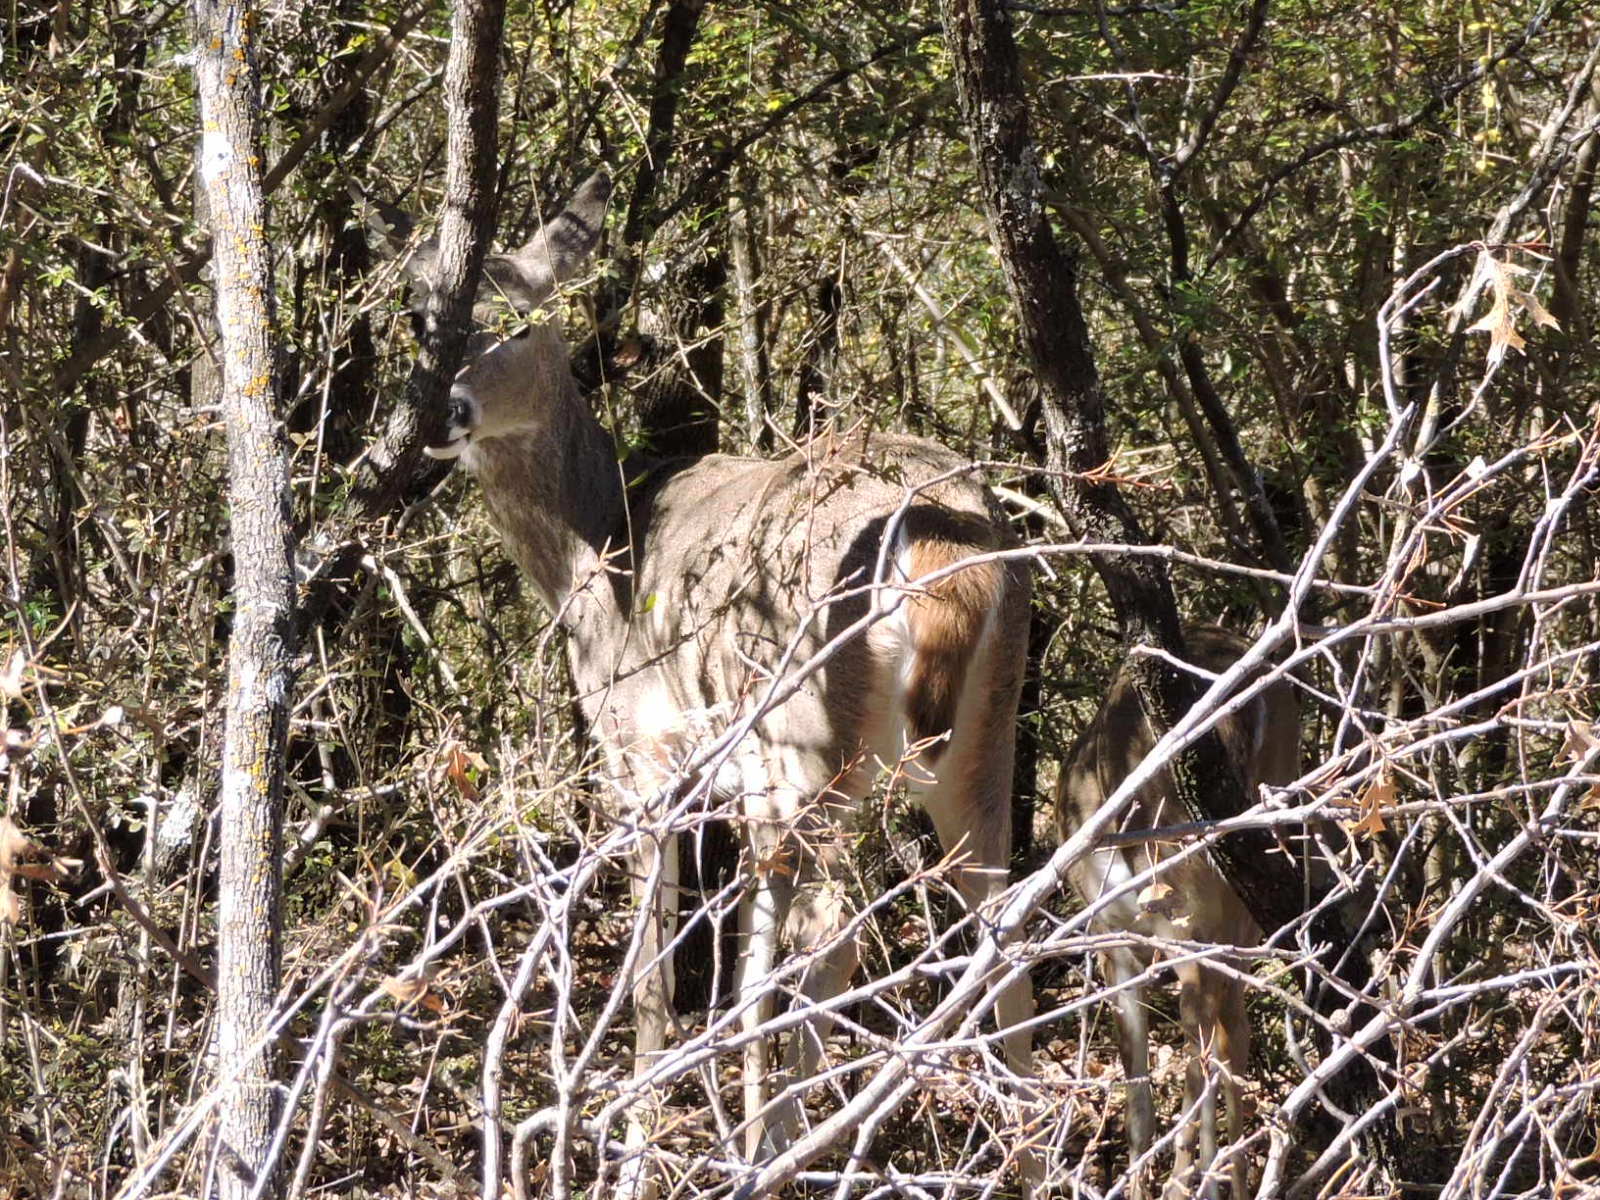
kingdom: Animalia
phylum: Chordata
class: Mammalia
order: Artiodactyla
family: Cervidae
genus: Odocoileus
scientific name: Odocoileus virginianus
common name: White-tailed deer
